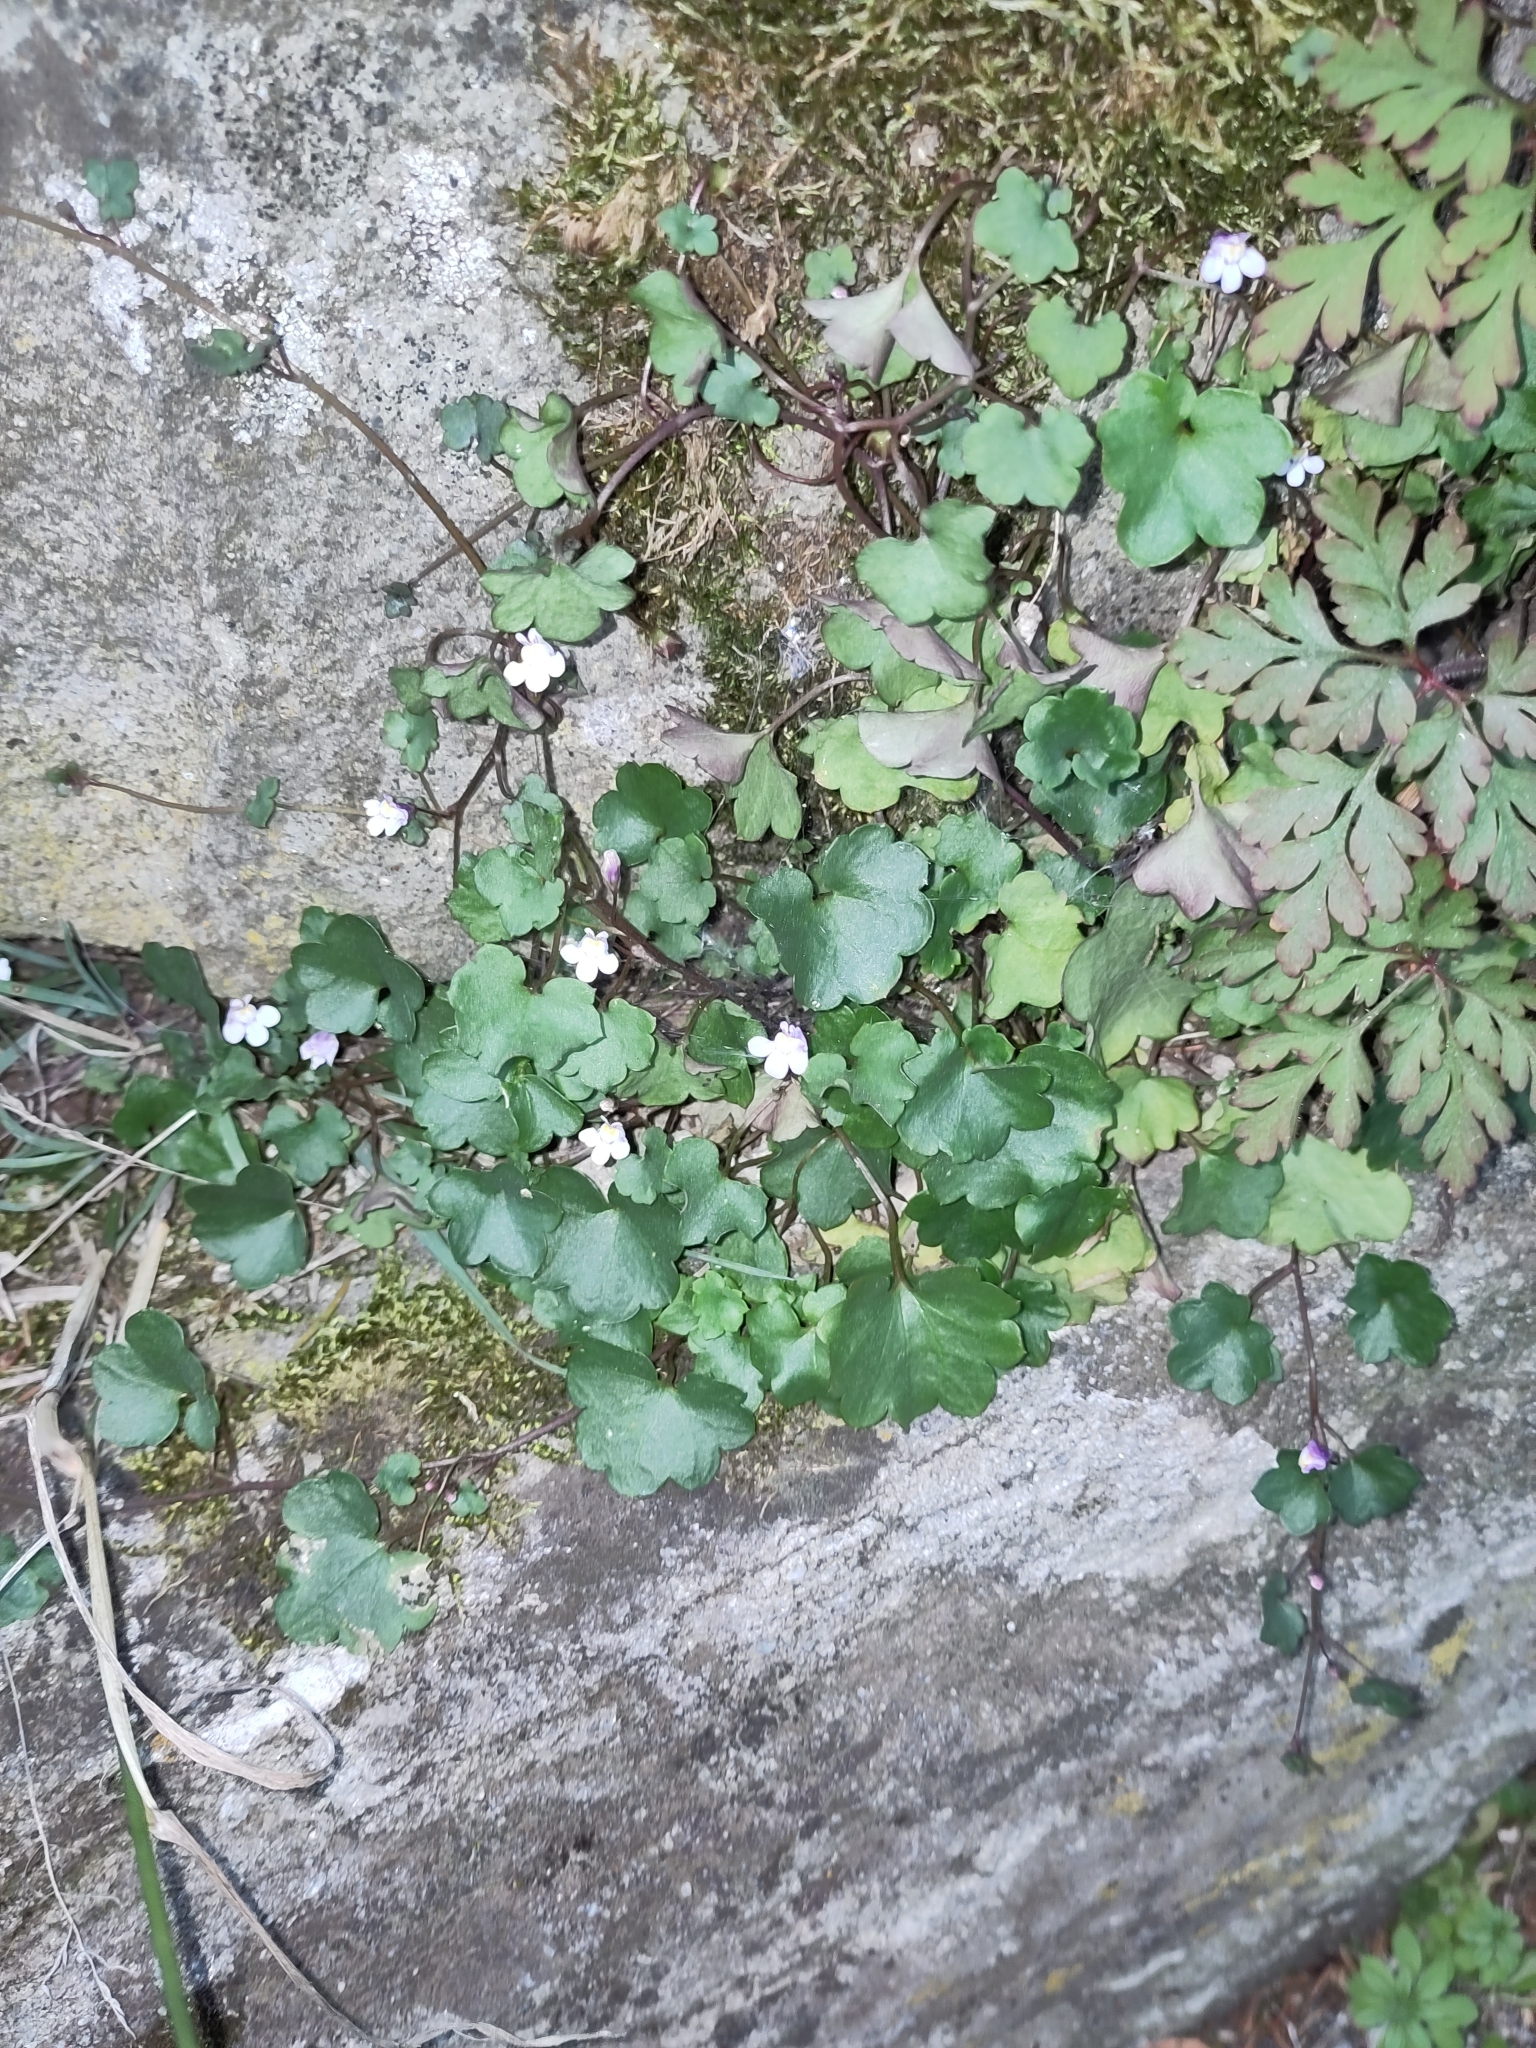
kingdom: Plantae
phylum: Tracheophyta
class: Magnoliopsida
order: Lamiales
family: Plantaginaceae
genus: Cymbalaria
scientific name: Cymbalaria muralis
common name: Ivy-leaved toadflax
